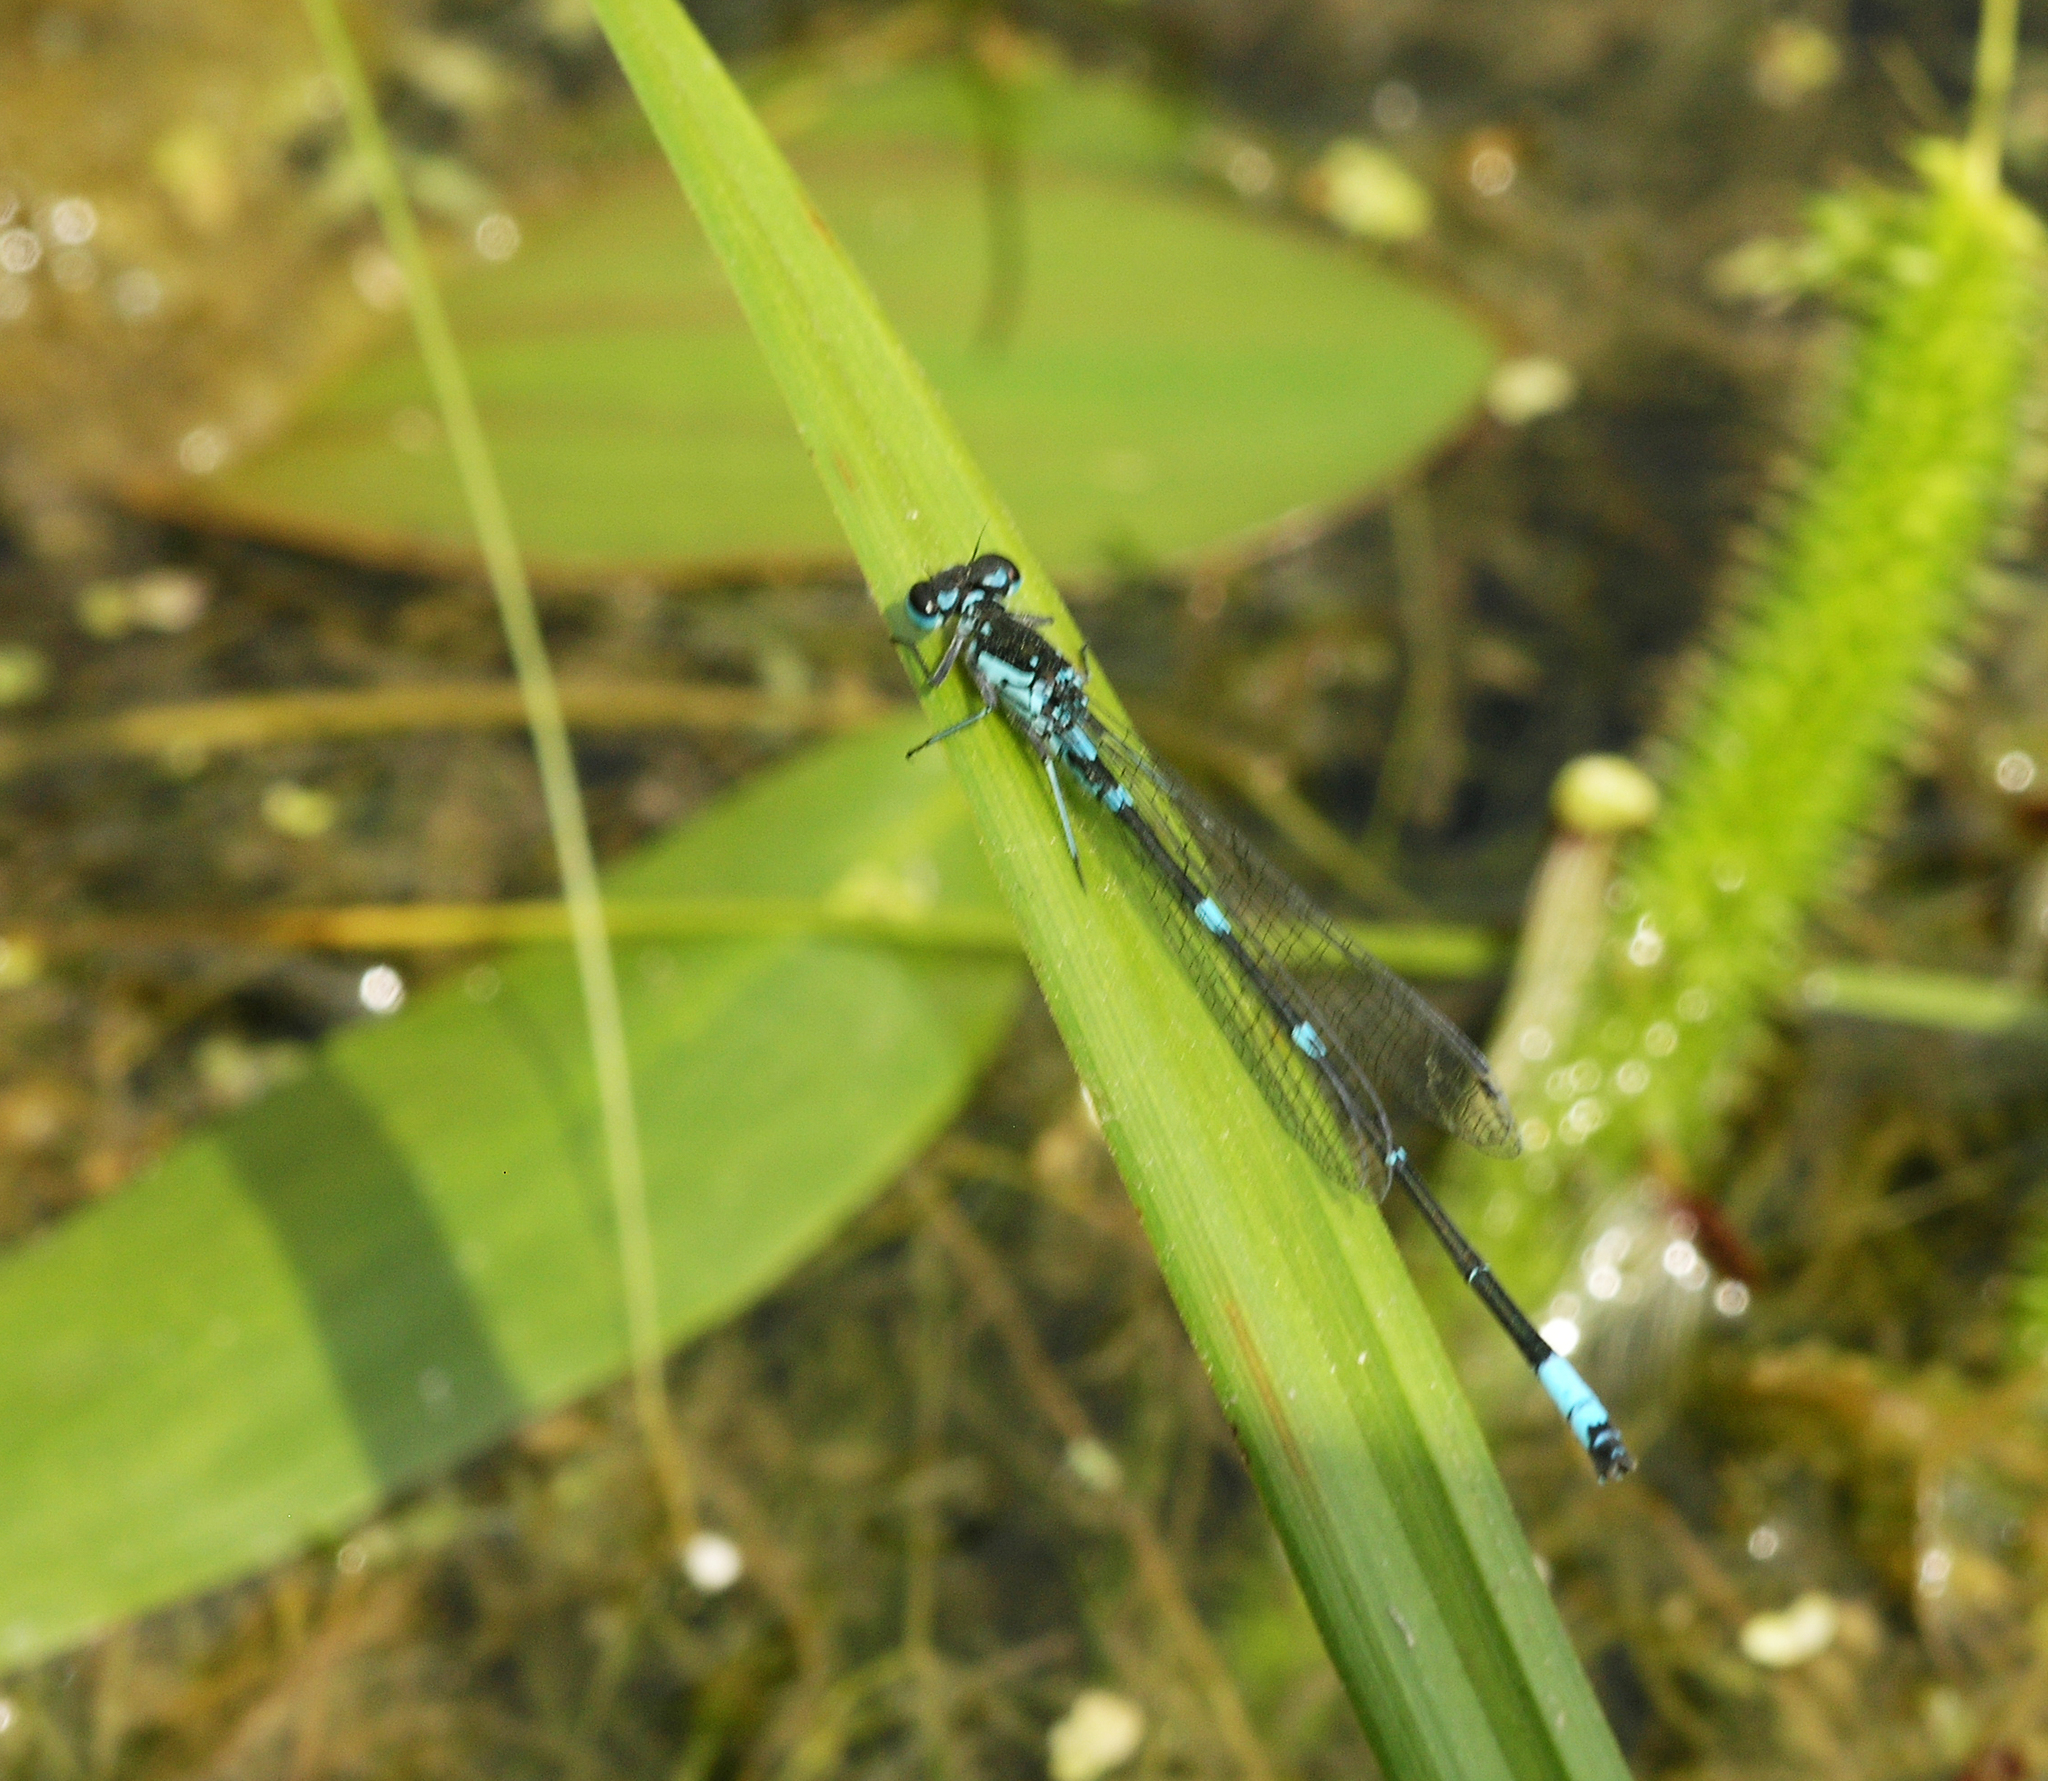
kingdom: Animalia
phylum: Arthropoda
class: Insecta
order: Odonata
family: Coenagrionidae
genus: Coenagrion
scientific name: Coenagrion pulchellum
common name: Variable bluet
